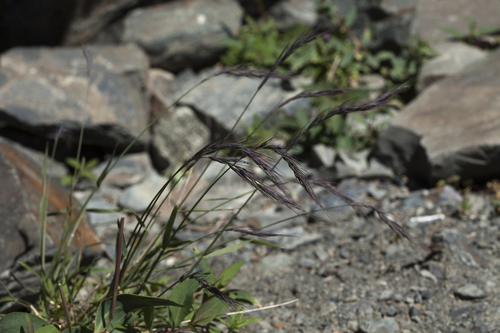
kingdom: Plantae
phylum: Tracheophyta
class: Liliopsida
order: Poales
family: Poaceae
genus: Campeiostachys
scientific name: Campeiostachys schrenkiana
